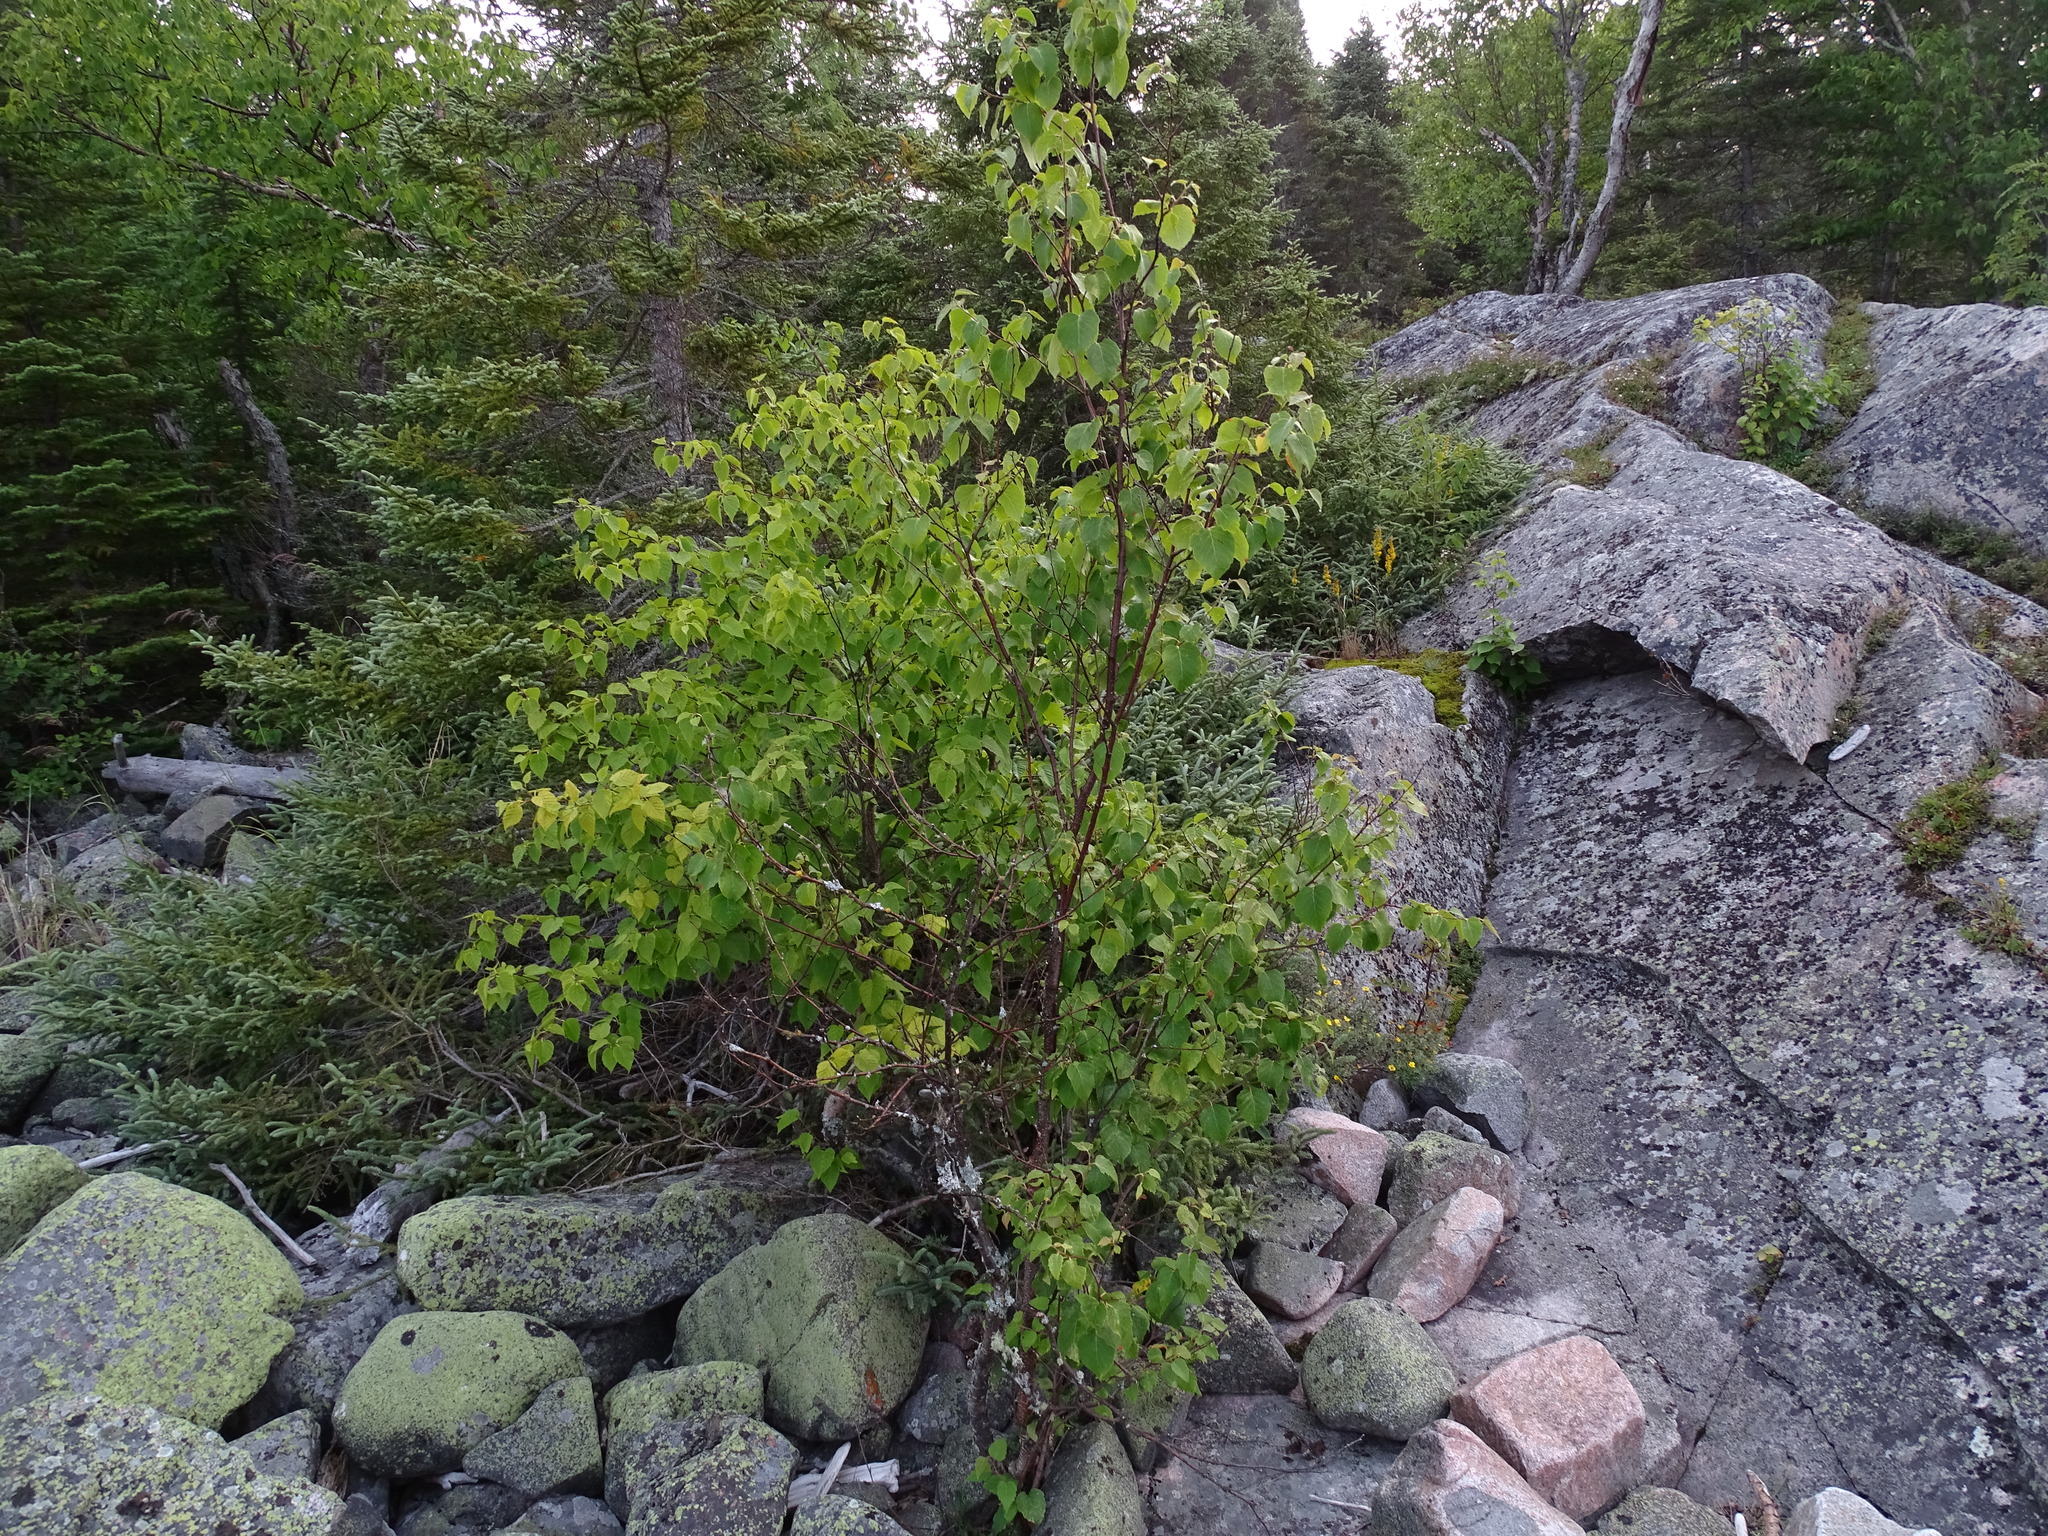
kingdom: Plantae
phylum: Tracheophyta
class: Magnoliopsida
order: Fagales
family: Betulaceae
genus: Betula
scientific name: Betula papyrifera
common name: Paper birch
